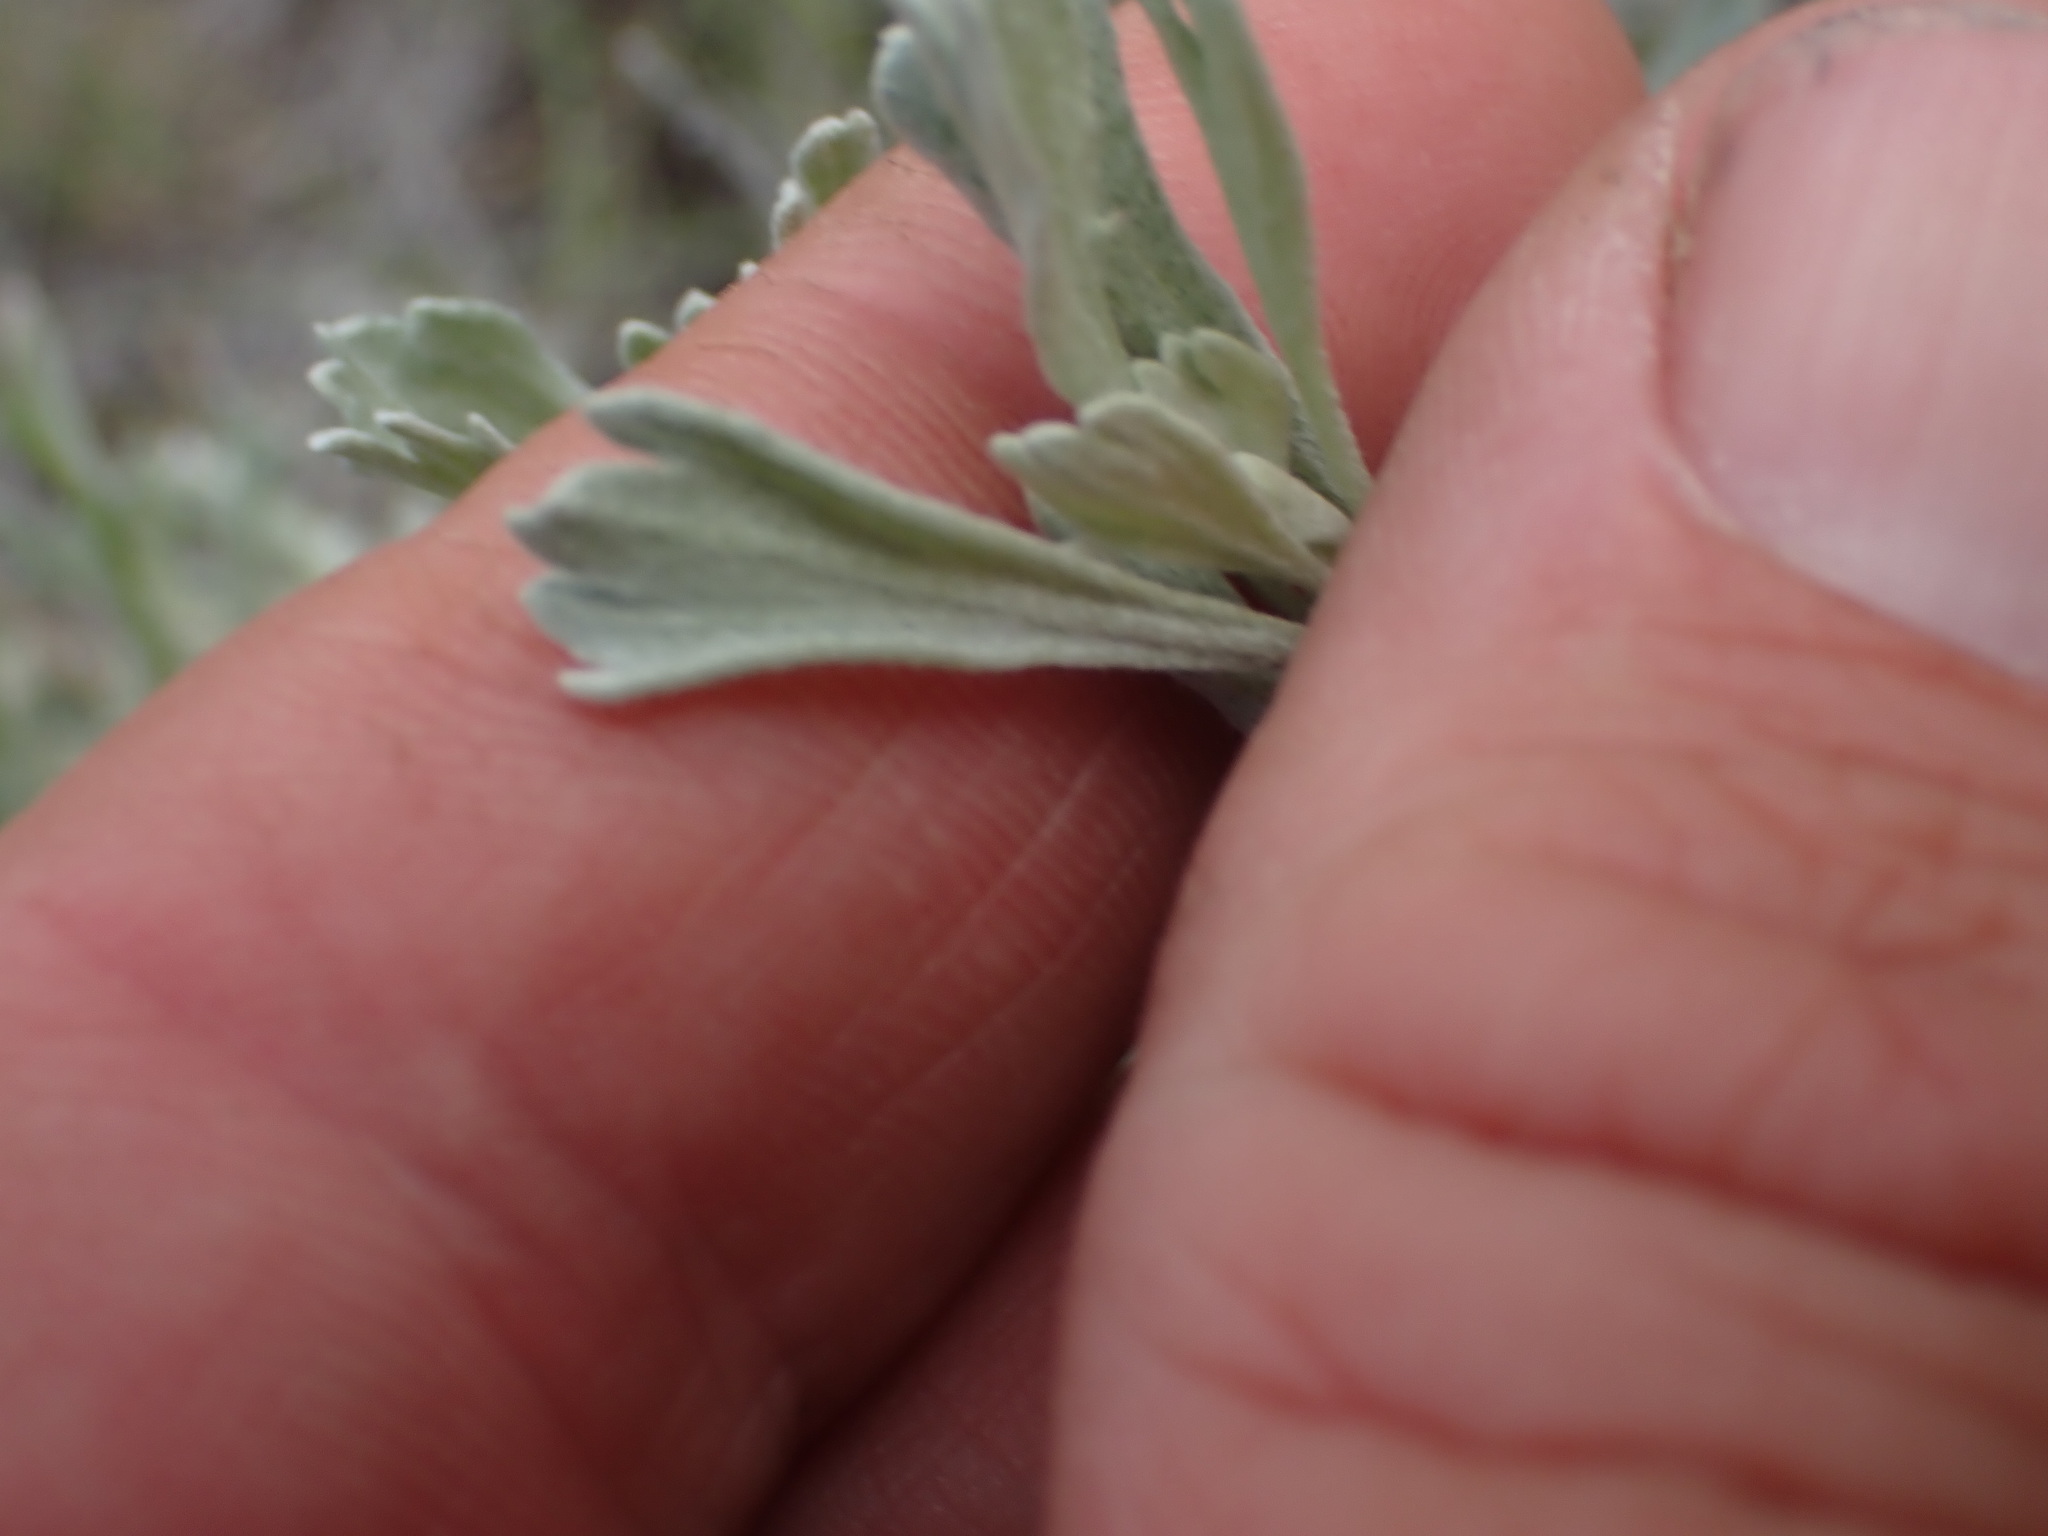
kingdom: Plantae
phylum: Tracheophyta
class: Magnoliopsida
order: Asterales
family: Asteraceae
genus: Artemisia
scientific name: Artemisia tridentata
